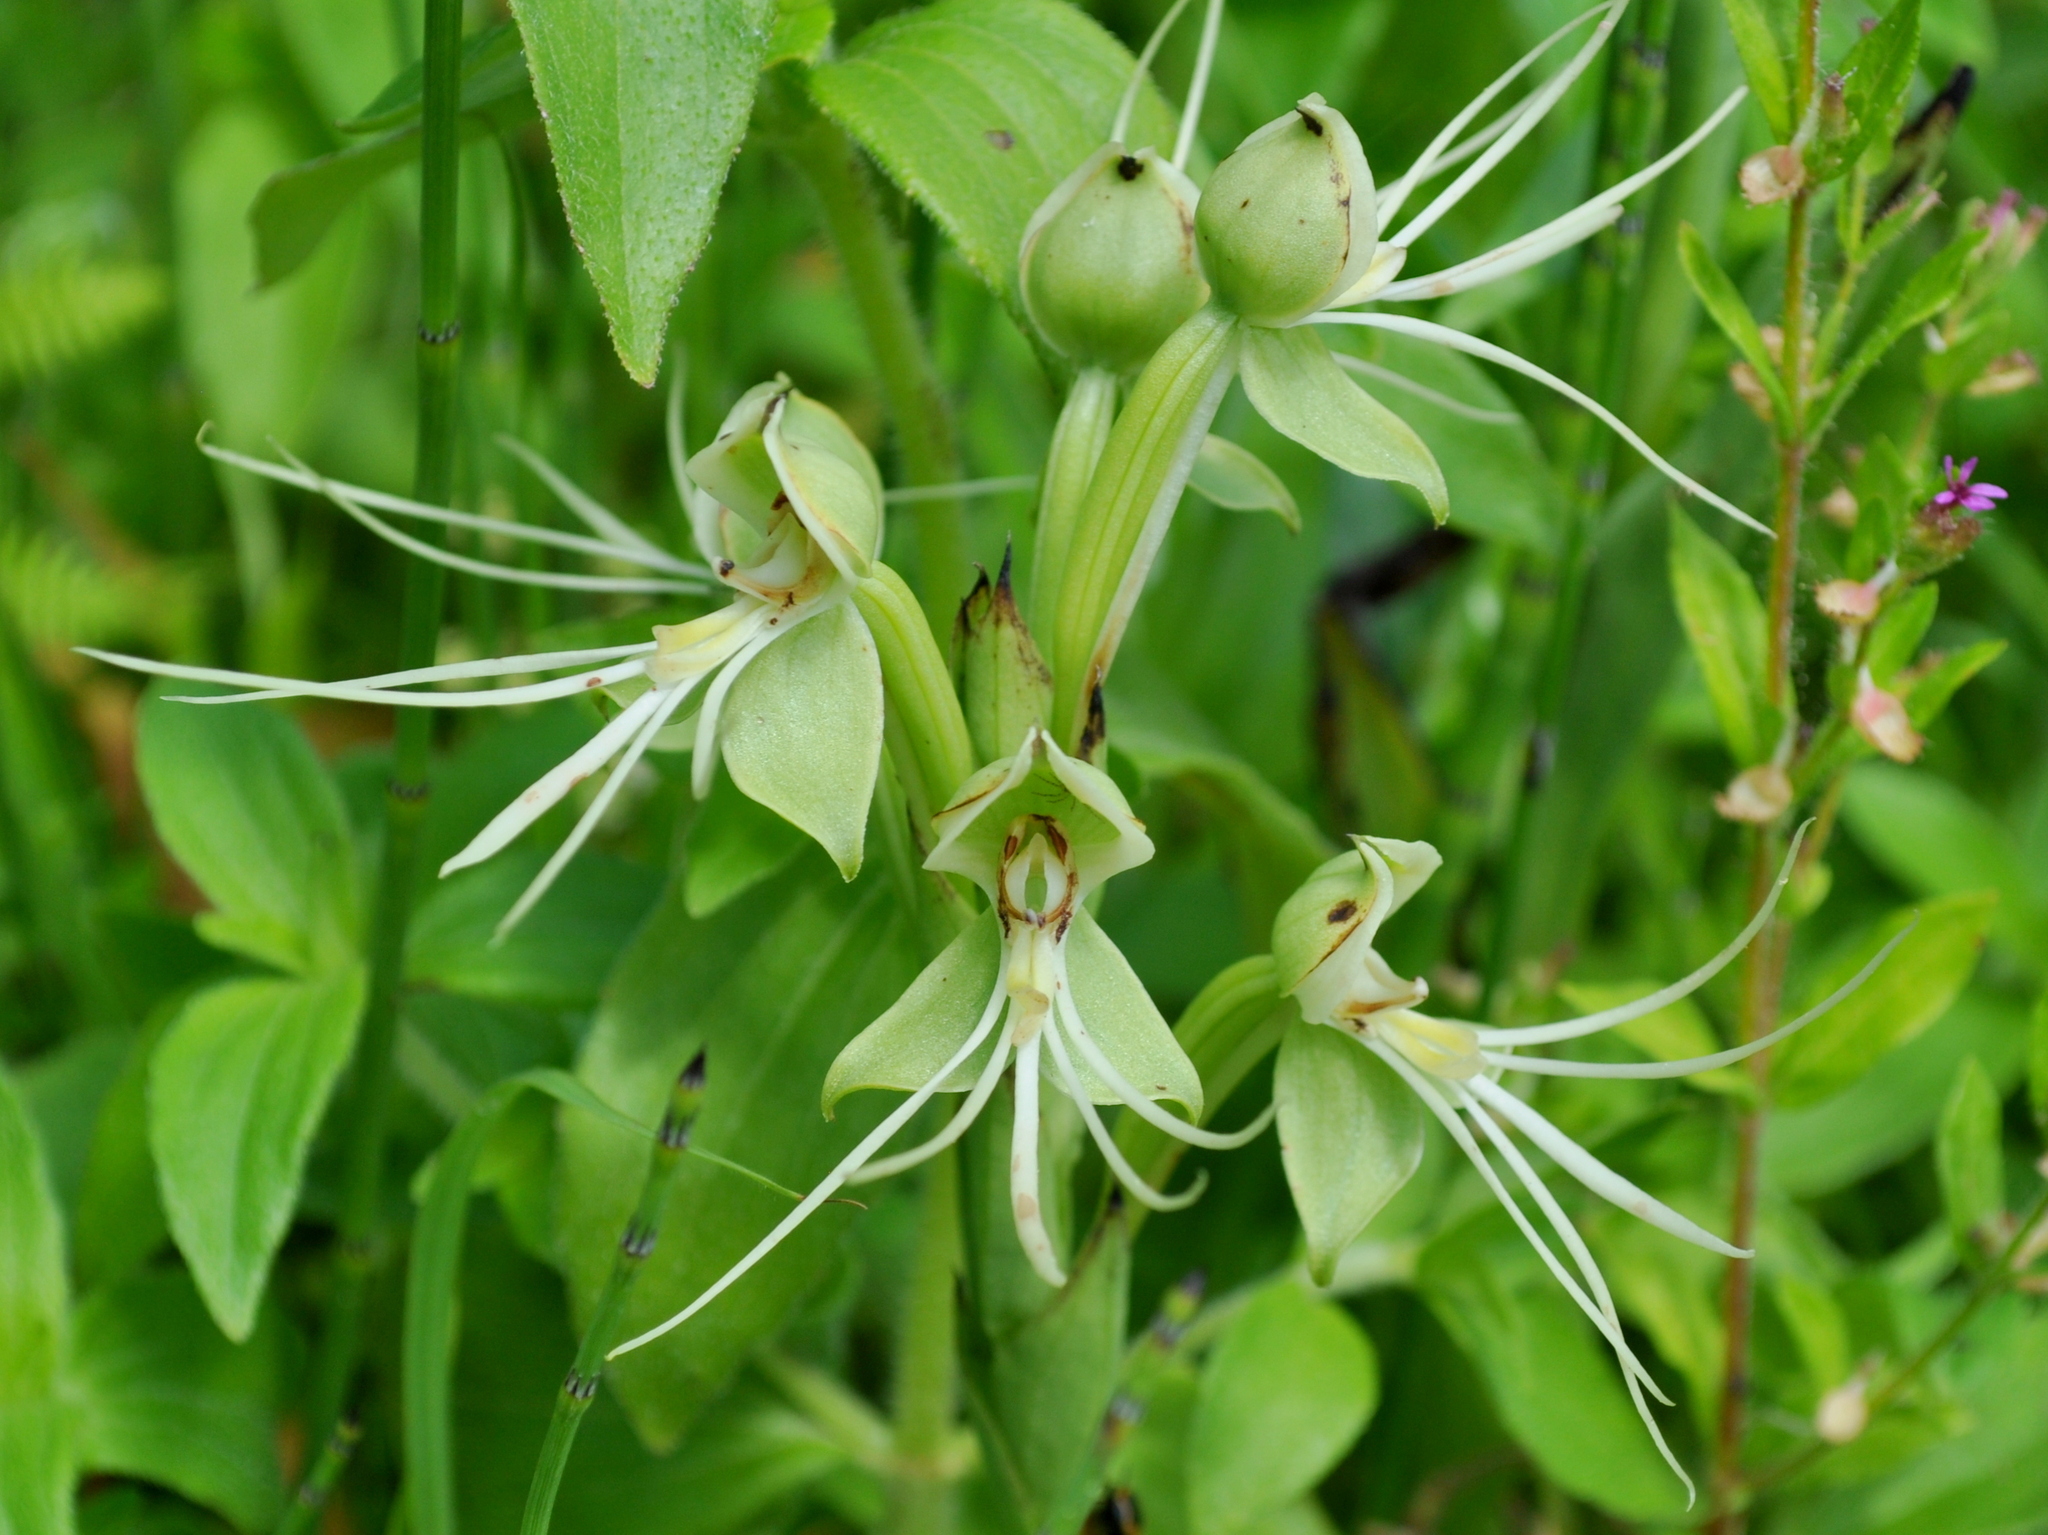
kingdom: Plantae
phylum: Tracheophyta
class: Liliopsida
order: Asparagales
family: Orchidaceae
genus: Habenaria
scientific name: Habenaria gourlieana
